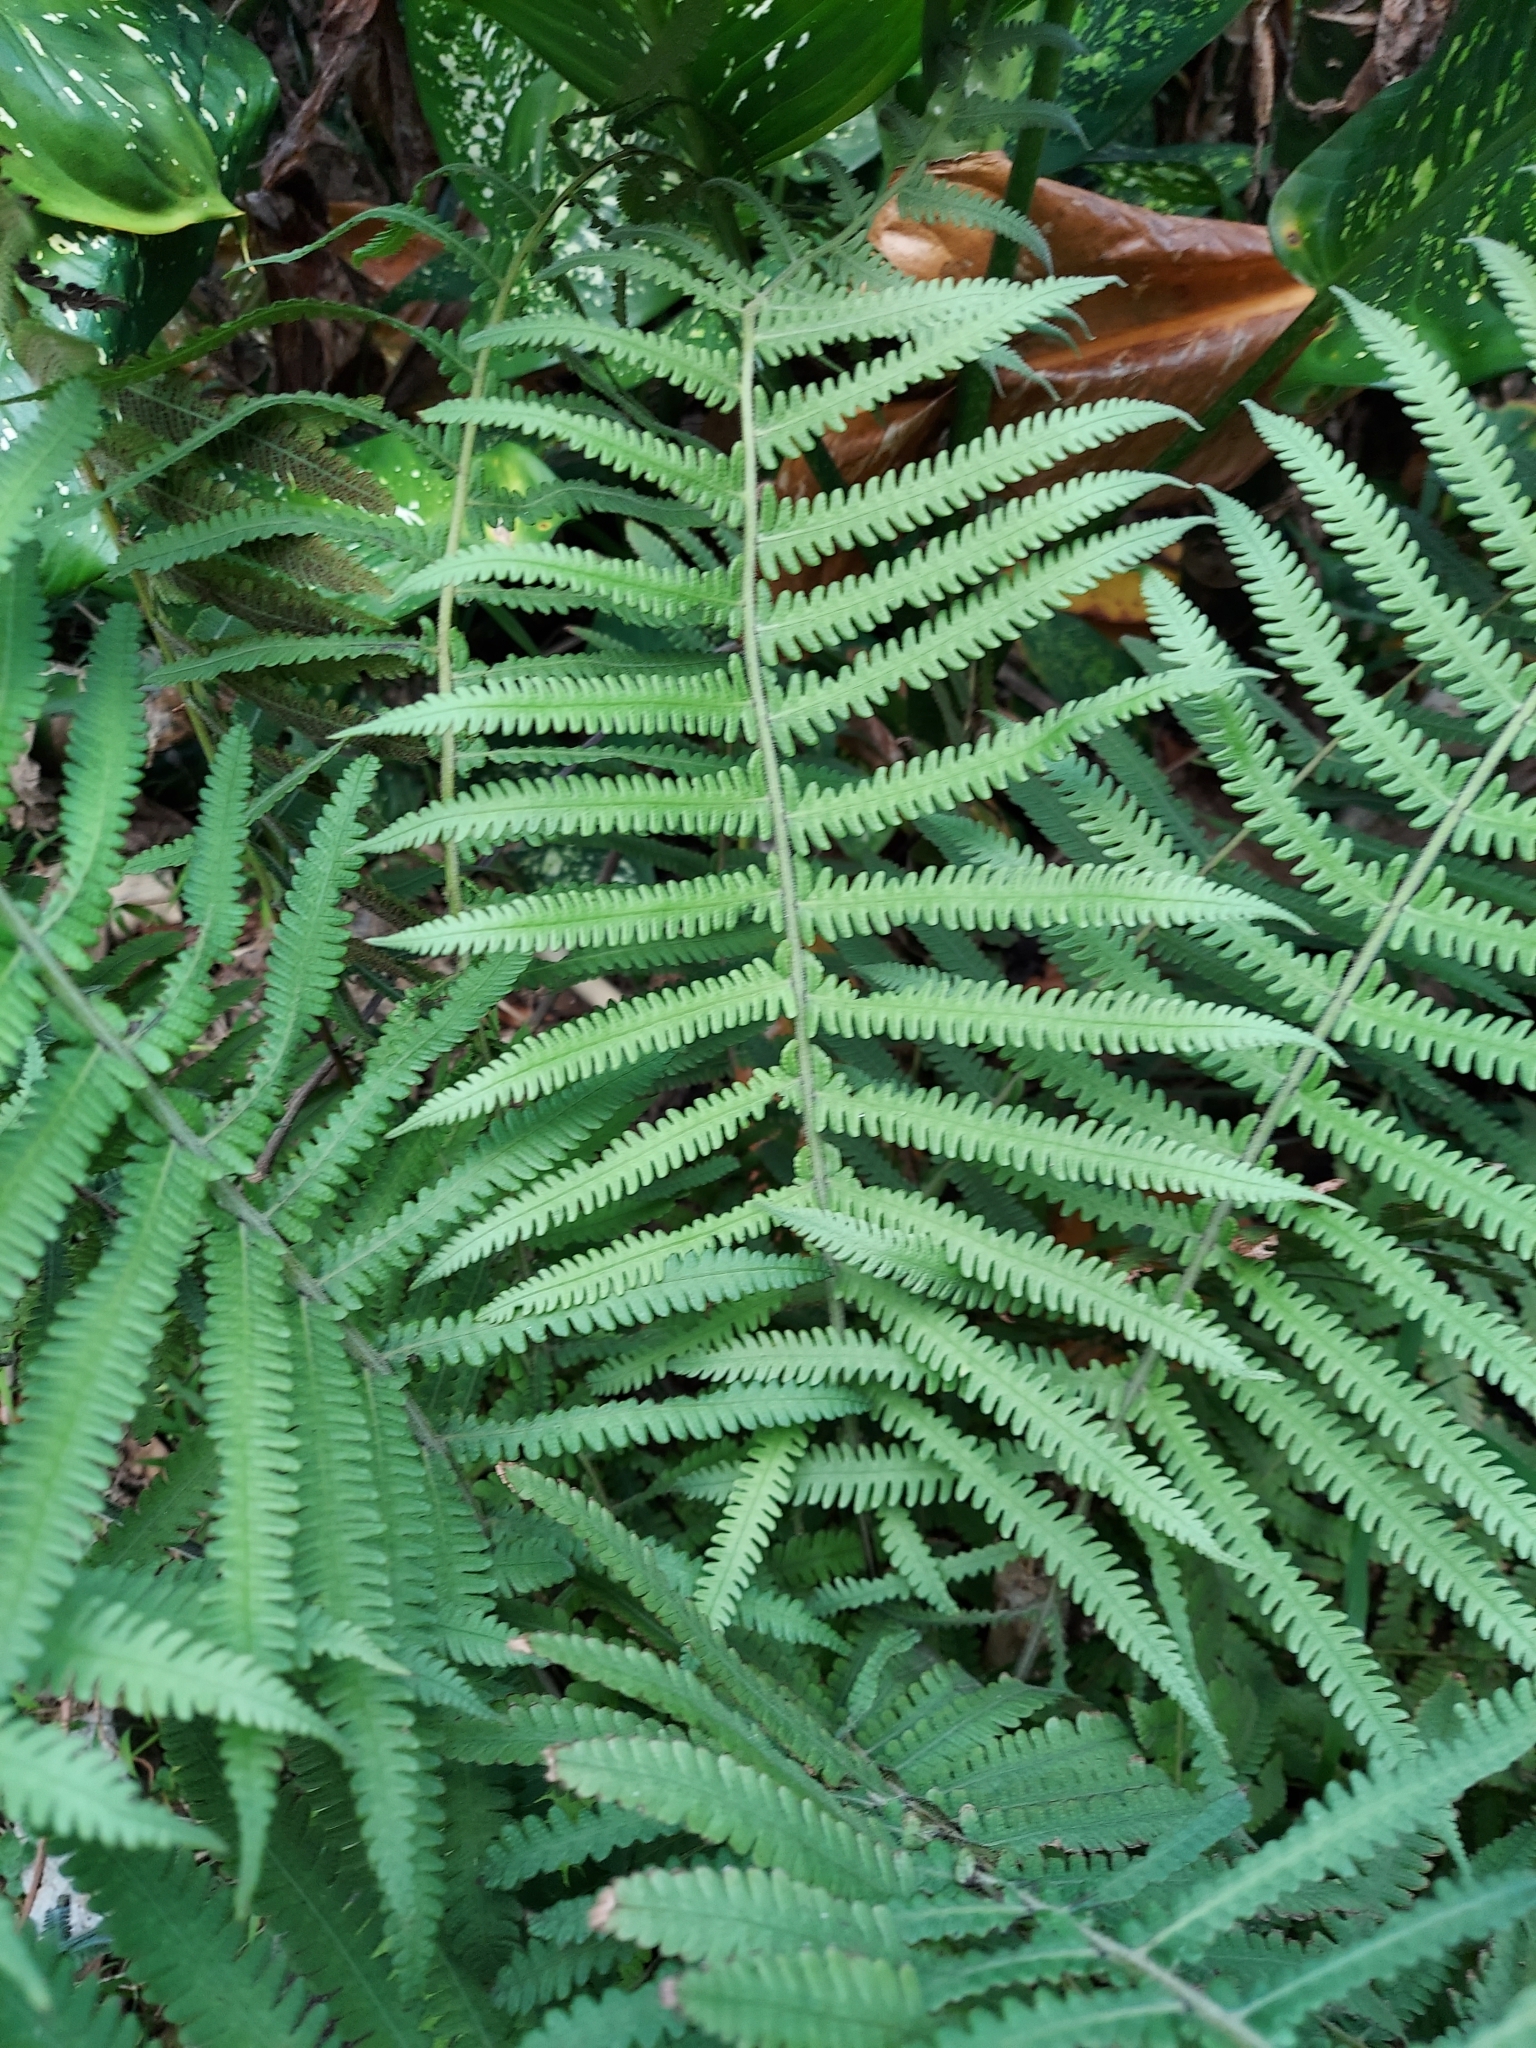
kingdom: Plantae
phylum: Tracheophyta
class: Polypodiopsida
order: Polypodiales
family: Thelypteridaceae
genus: Christella
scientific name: Christella parasitica
